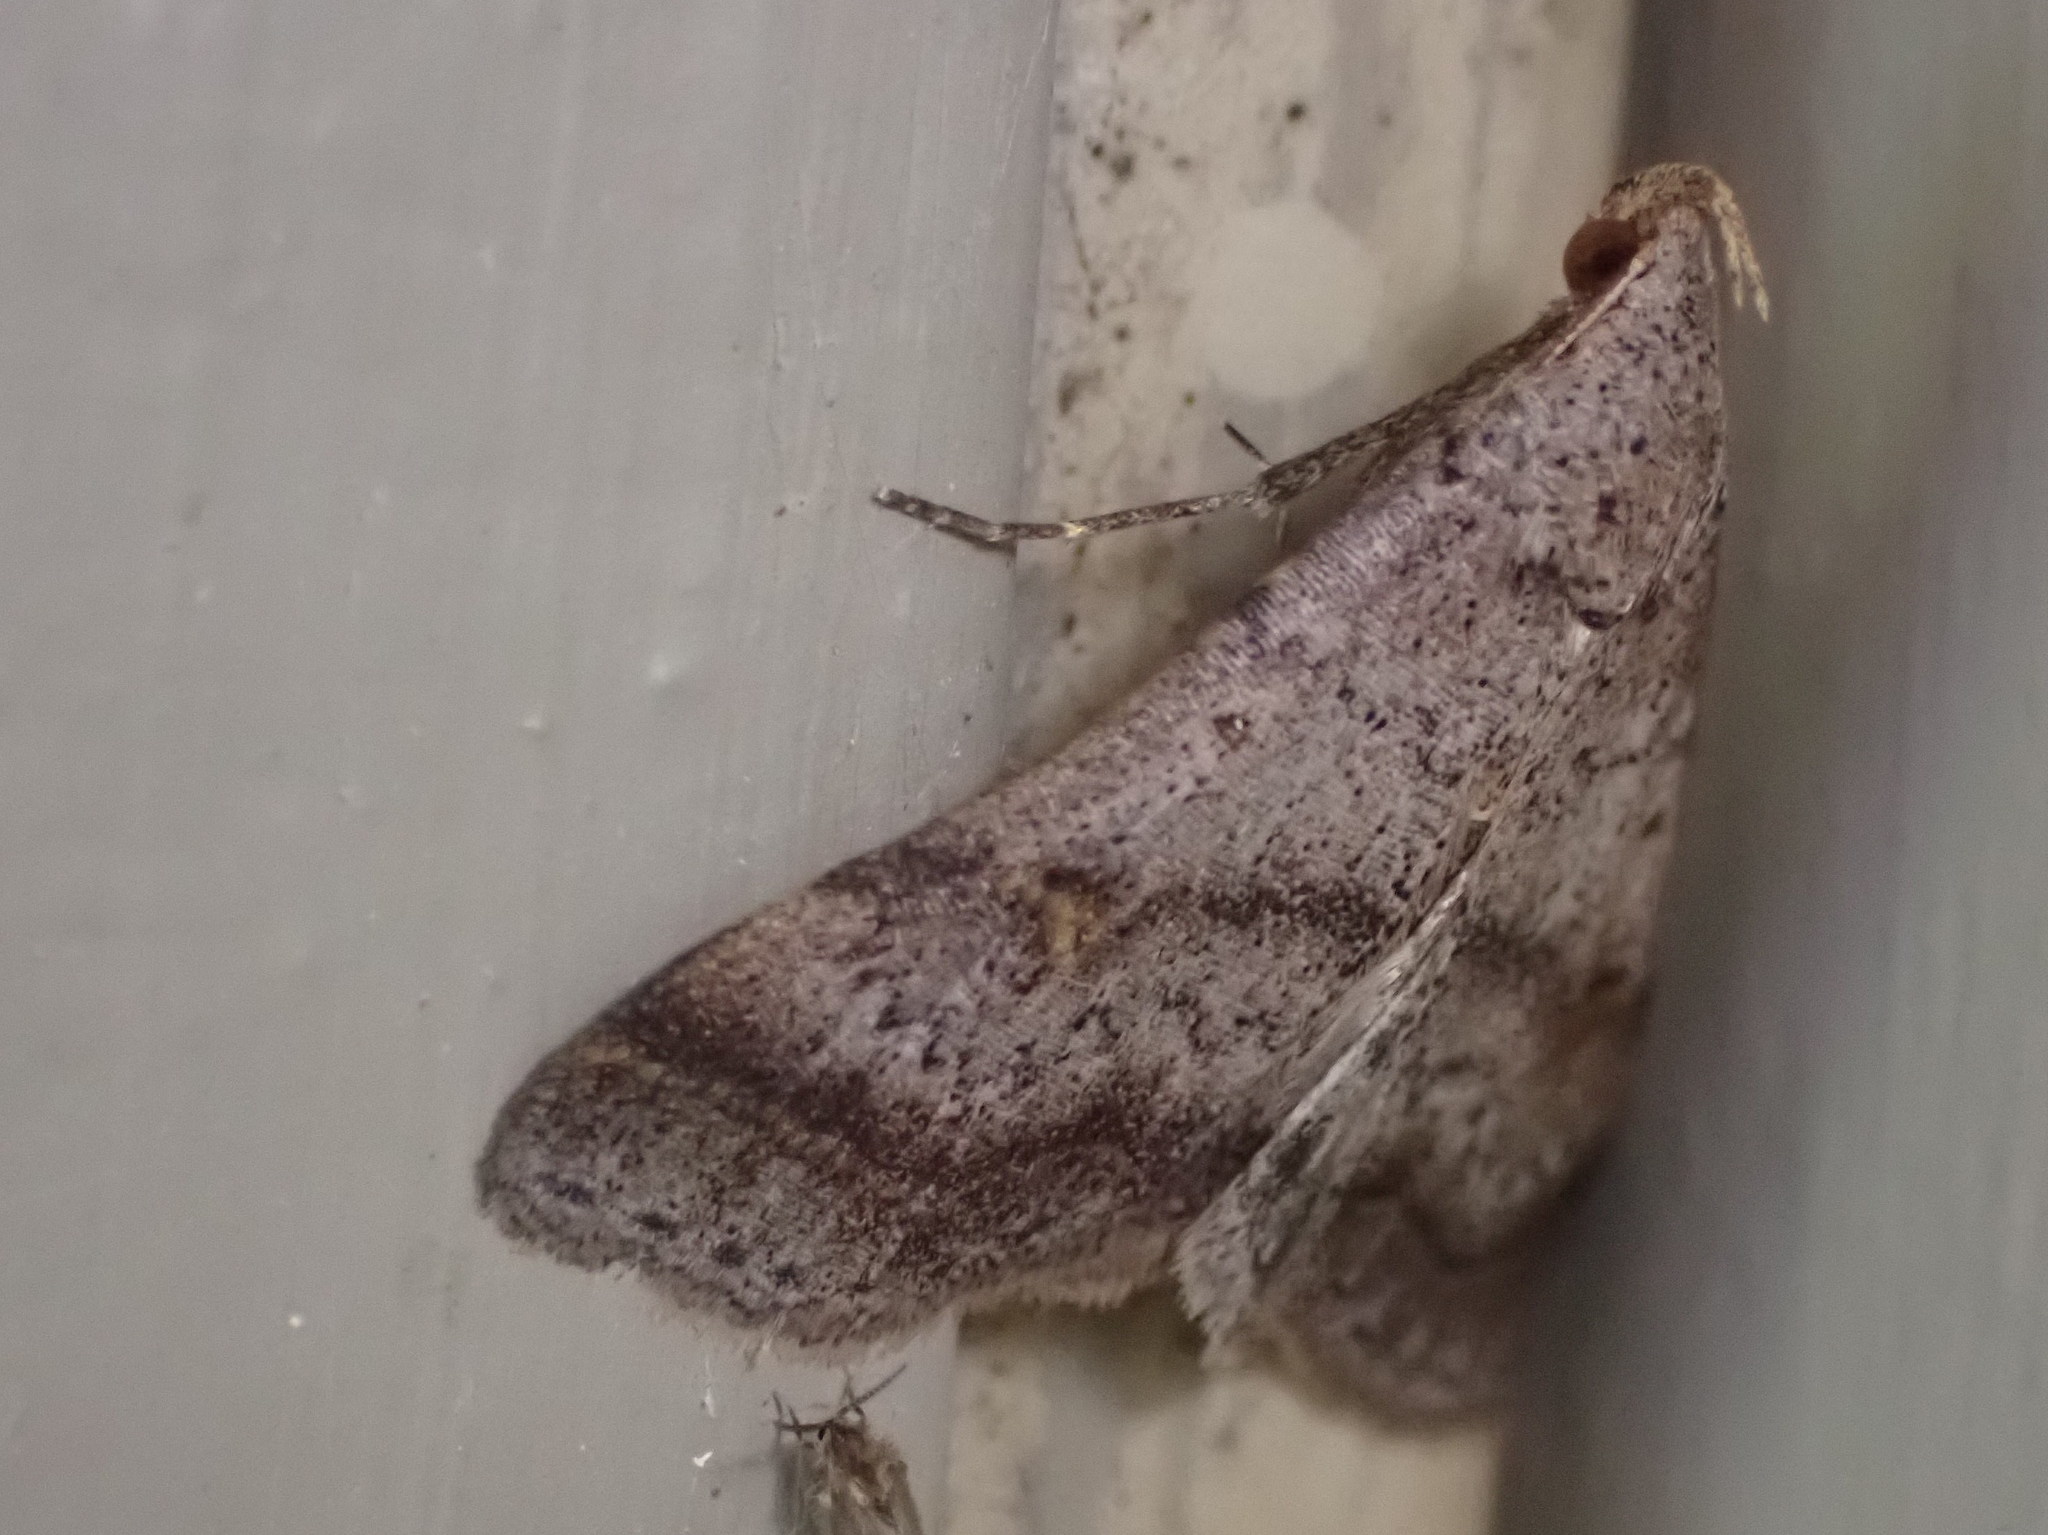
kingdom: Animalia
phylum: Arthropoda
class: Insecta
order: Lepidoptera
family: Erebidae
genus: Bleptina
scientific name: Bleptina caradrinalis
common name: Bent-winged owlet
